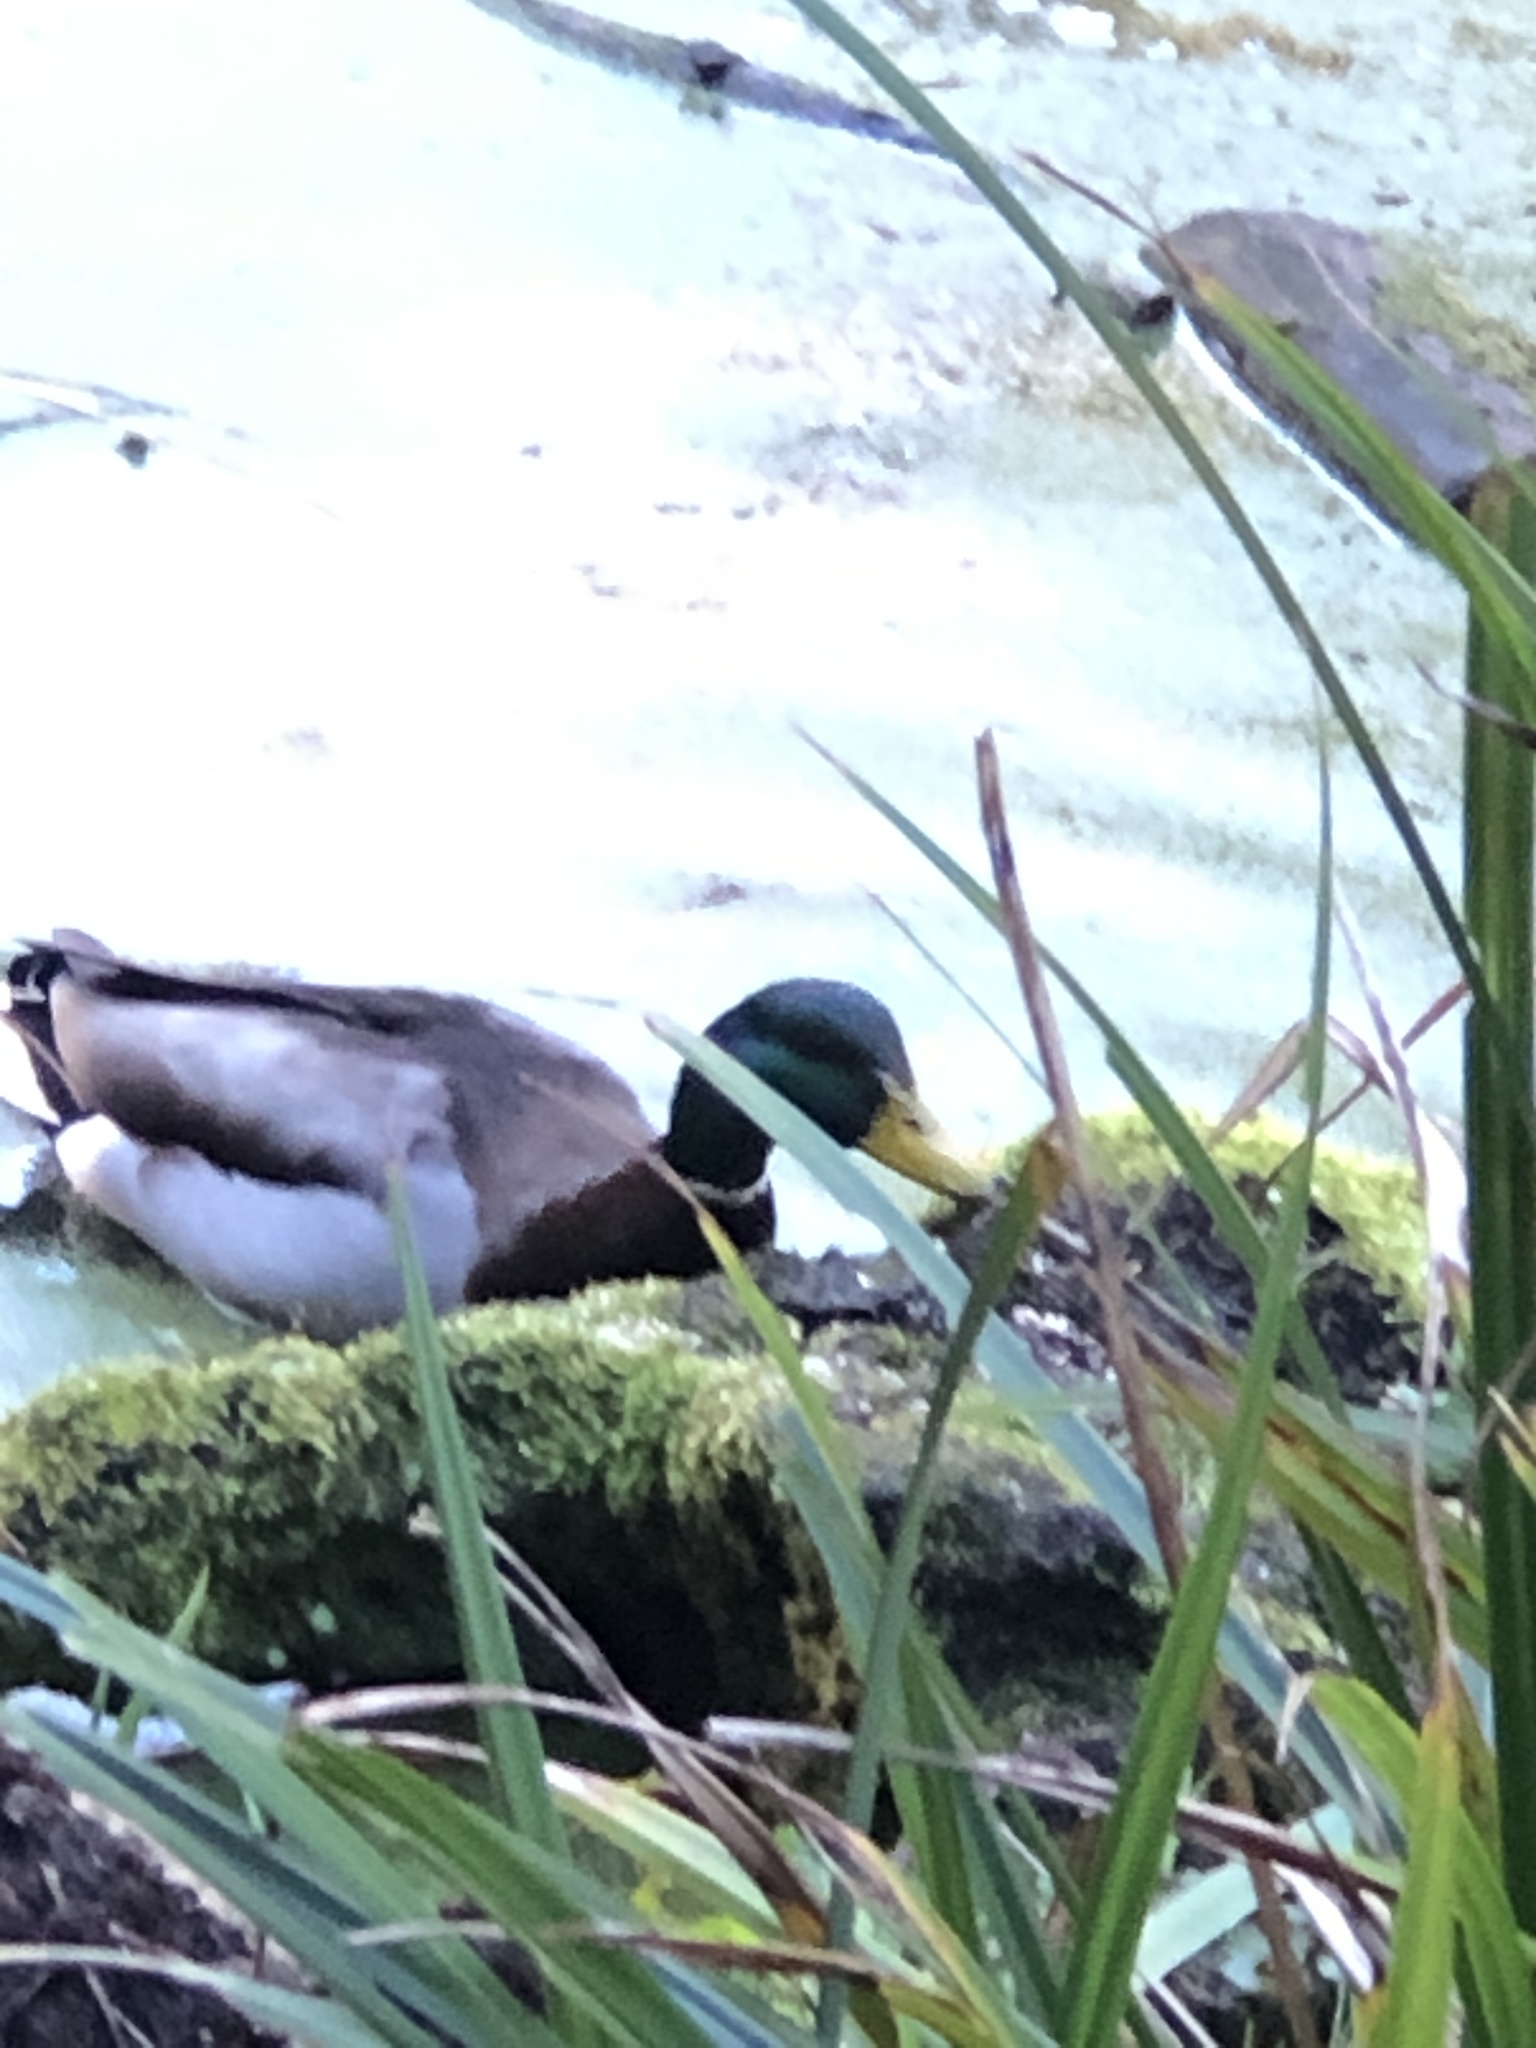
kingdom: Animalia
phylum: Chordata
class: Aves
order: Anseriformes
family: Anatidae
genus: Anas
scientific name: Anas platyrhynchos
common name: Mallard
